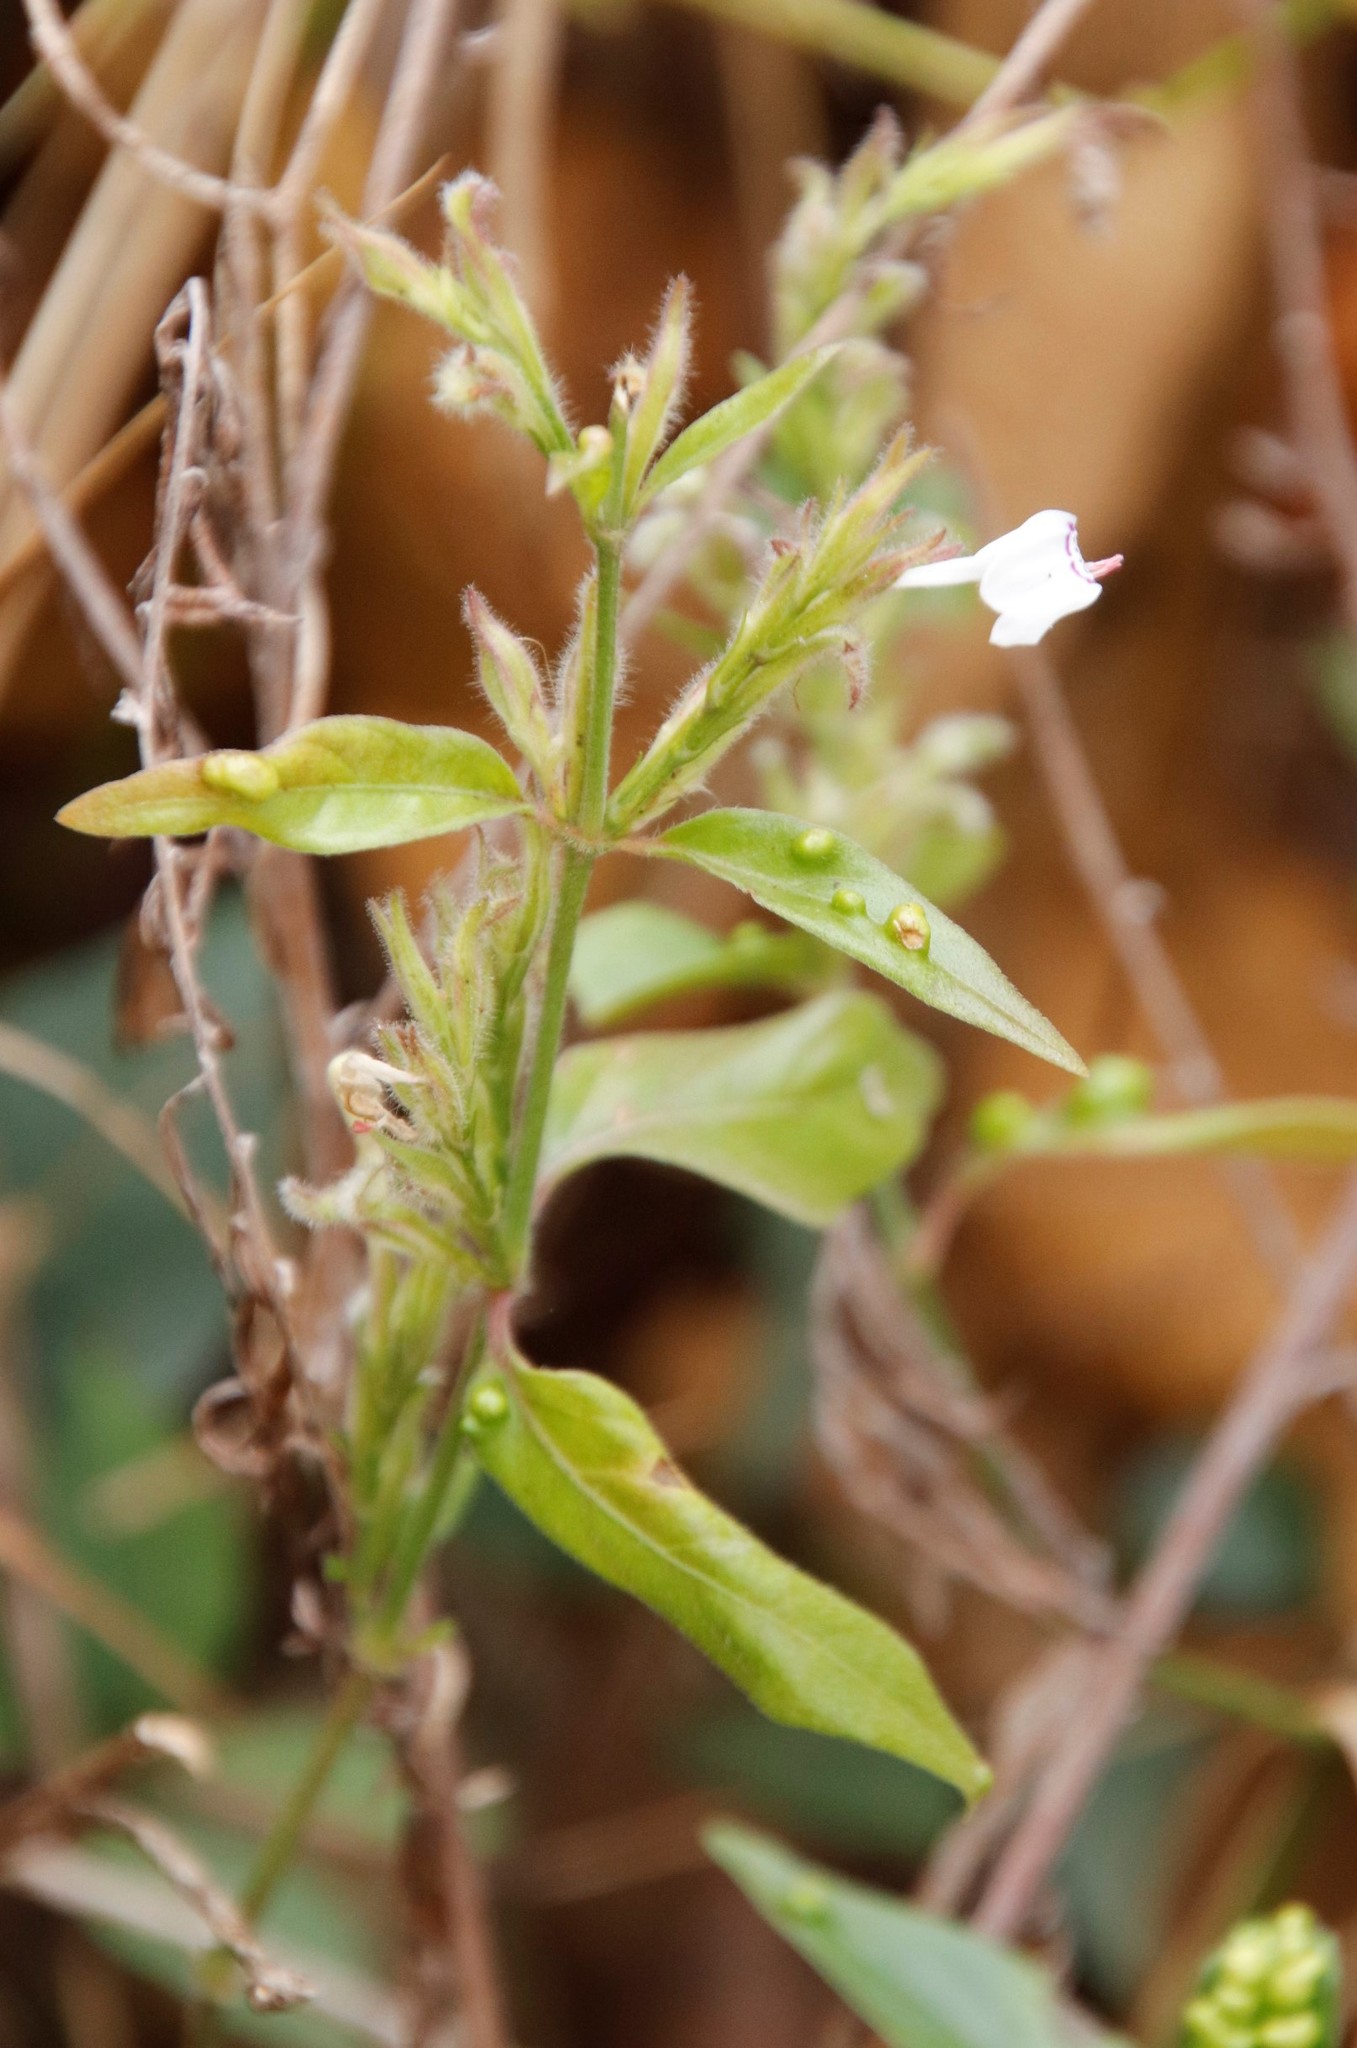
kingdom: Plantae
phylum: Tracheophyta
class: Magnoliopsida
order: Lamiales
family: Acanthaceae
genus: Hypoestes
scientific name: Hypoestes forskaolii
